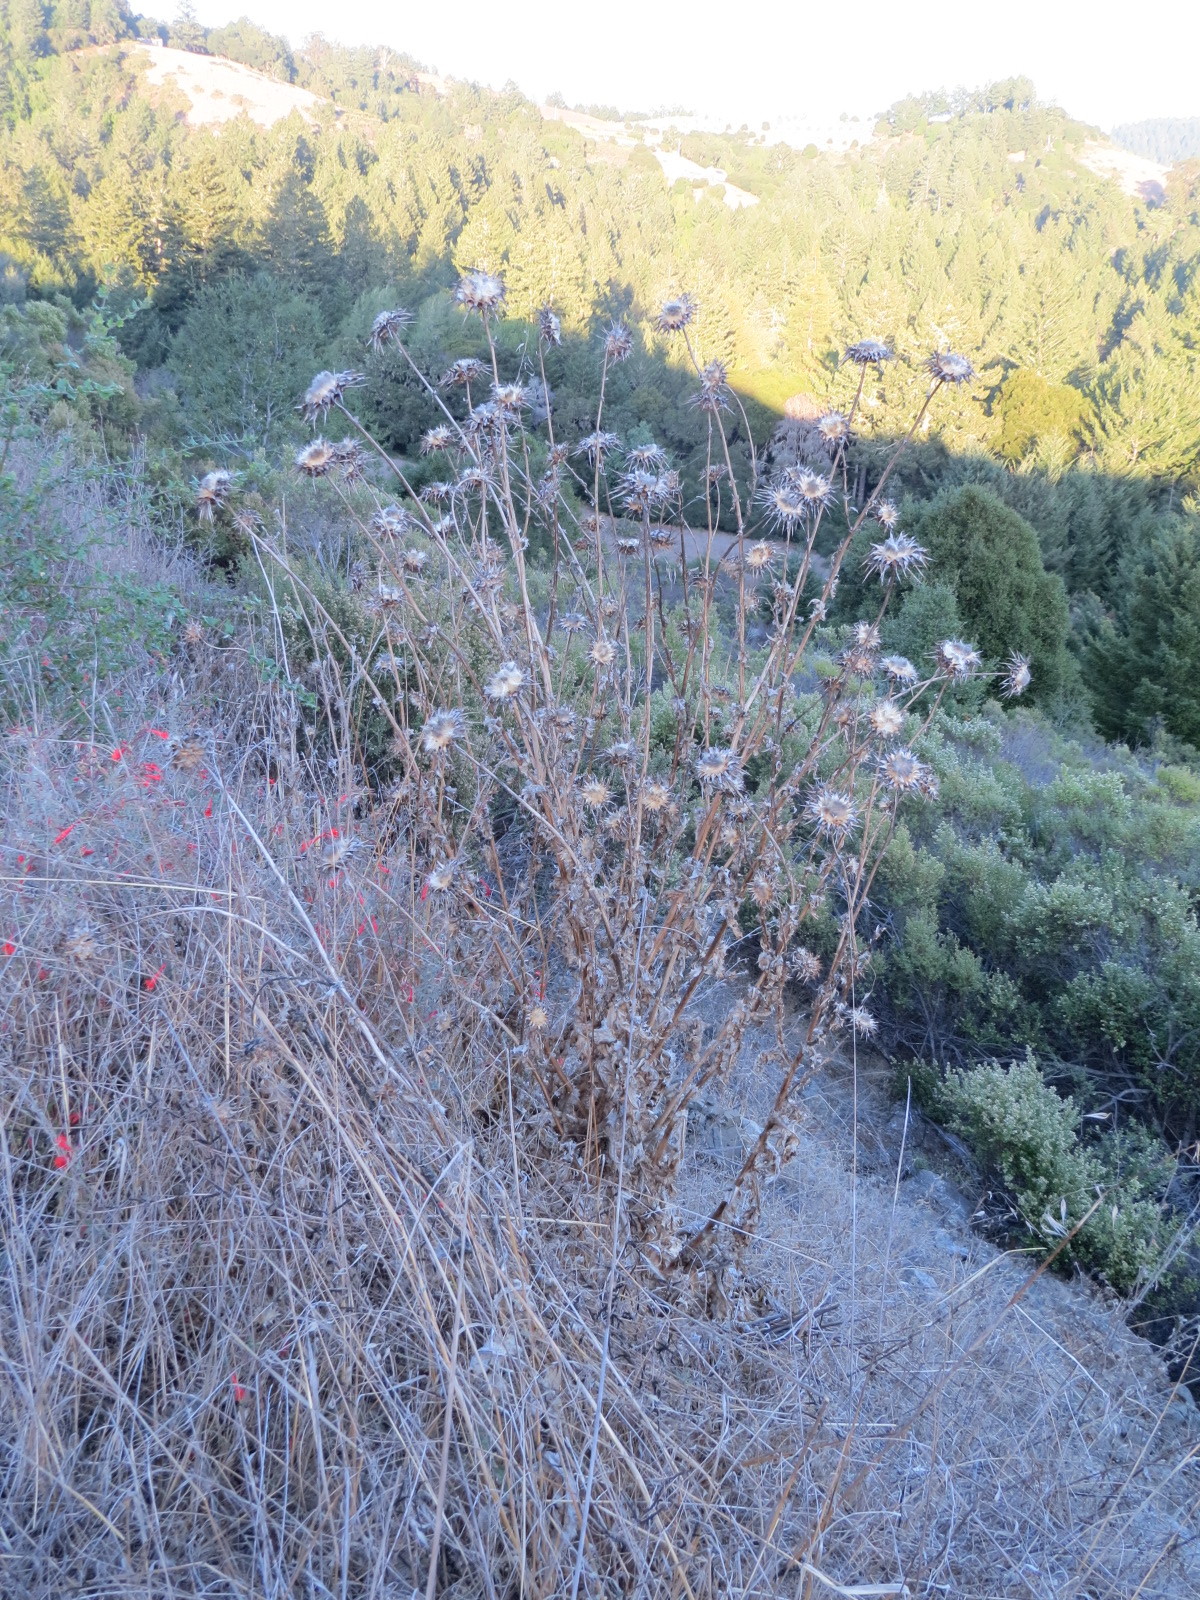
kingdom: Plantae
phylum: Tracheophyta
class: Magnoliopsida
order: Asterales
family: Asteraceae
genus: Silybum
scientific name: Silybum marianum
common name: Milk thistle
